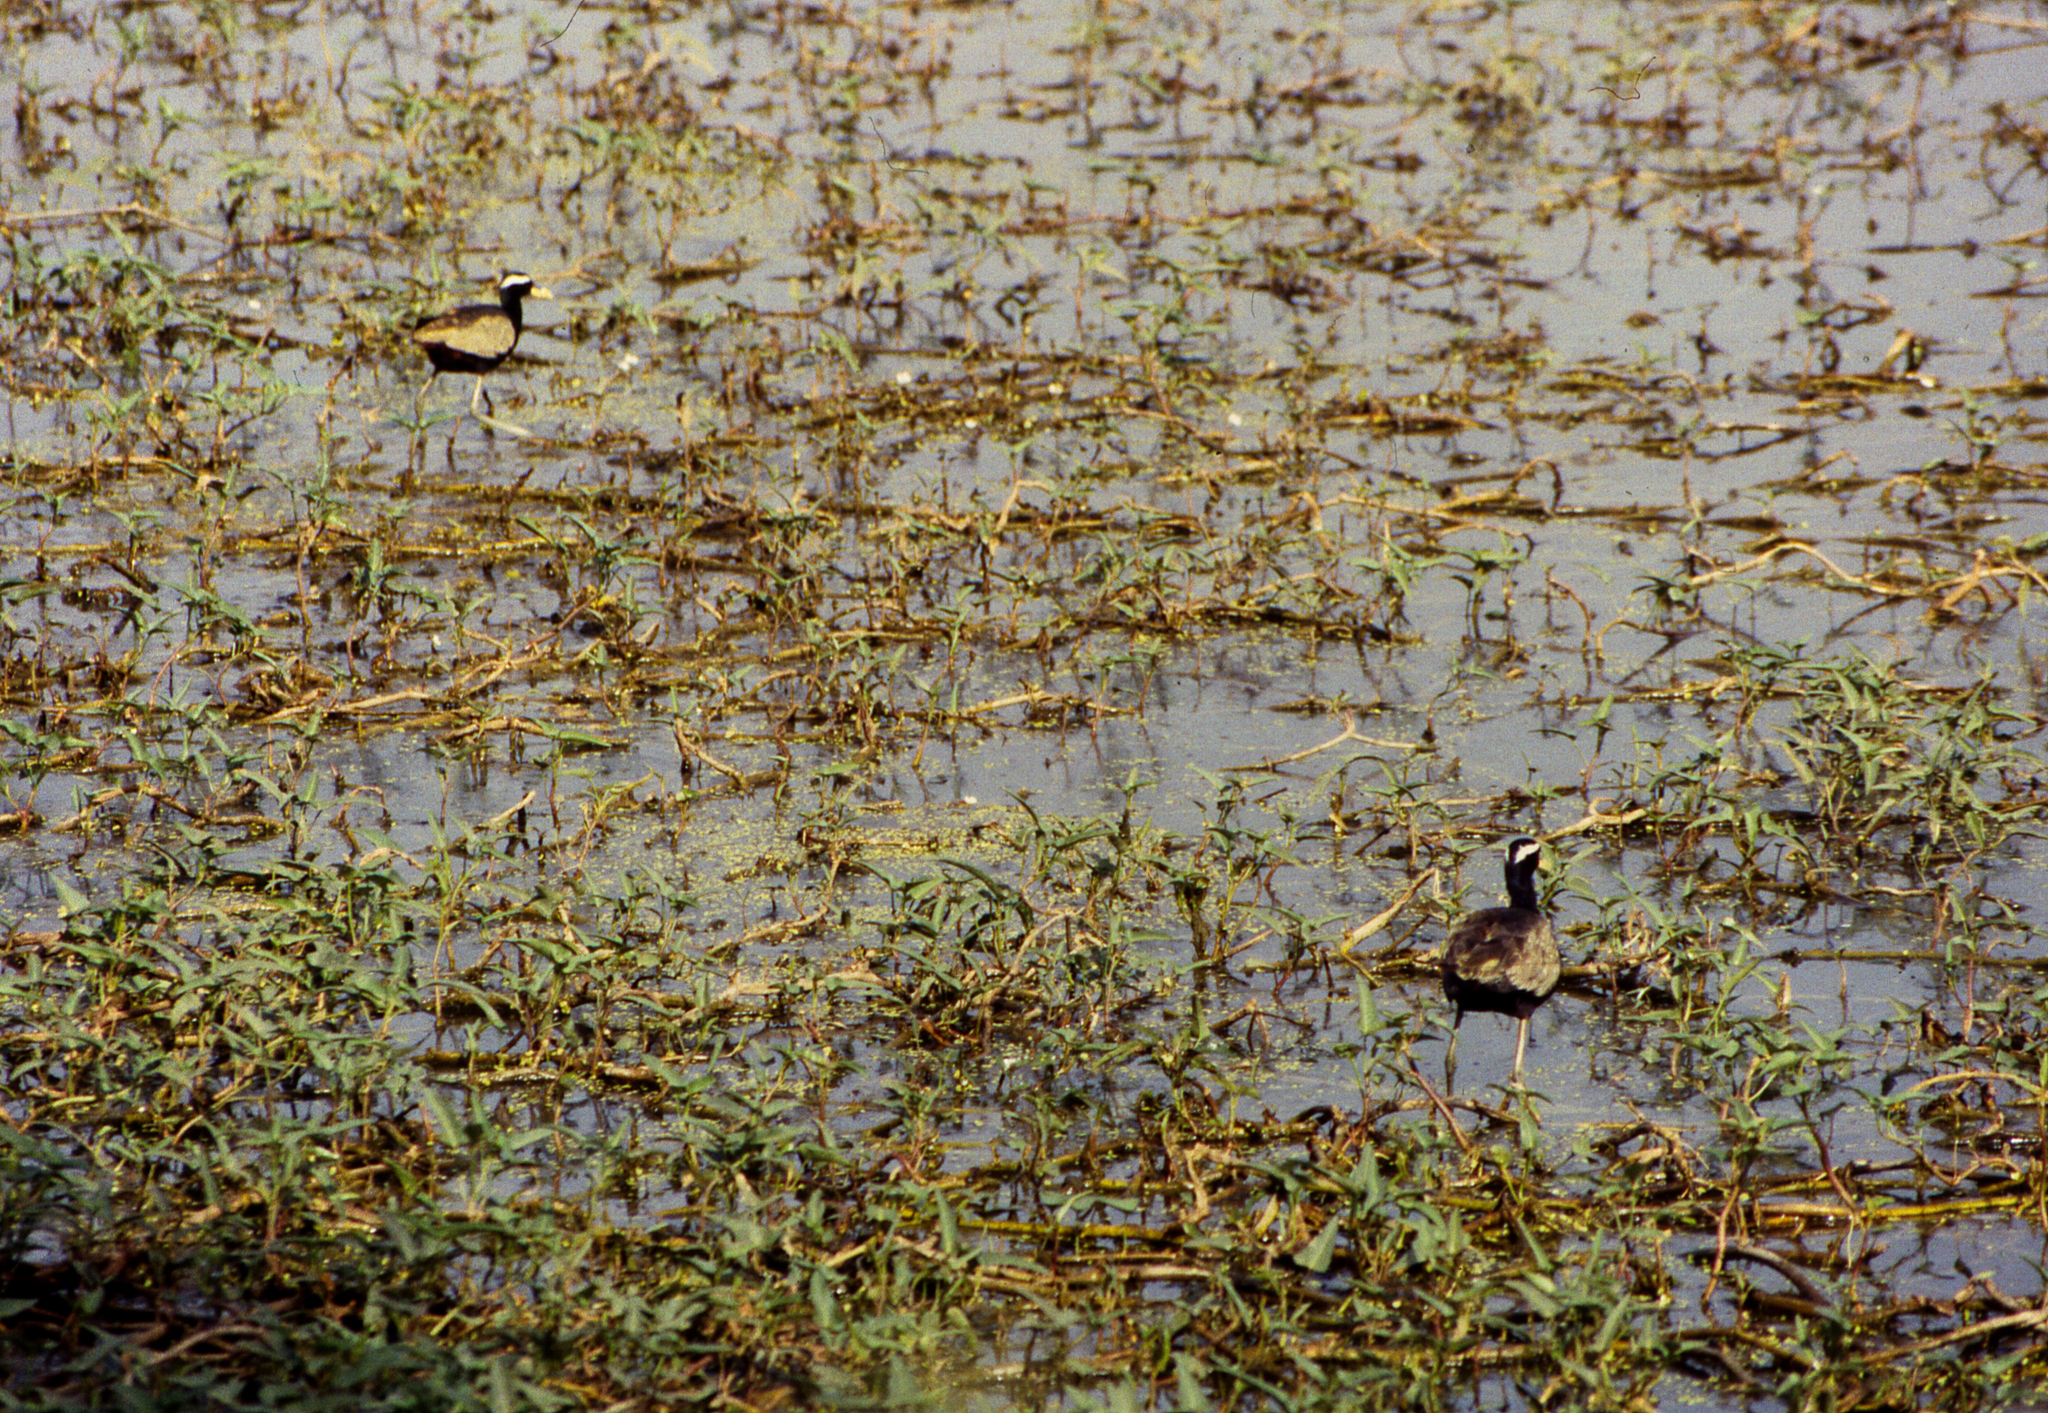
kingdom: Animalia
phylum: Chordata
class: Aves
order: Charadriiformes
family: Jacanidae
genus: Metopidius
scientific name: Metopidius indicus
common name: Bronze-winged jacana
